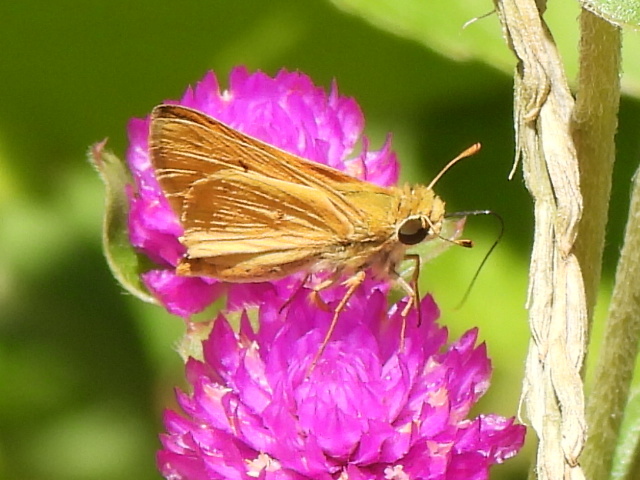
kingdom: Animalia
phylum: Arthropoda
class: Insecta
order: Lepidoptera
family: Hesperiidae
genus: Hylephila
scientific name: Hylephila phyleus
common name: Fiery skipper
